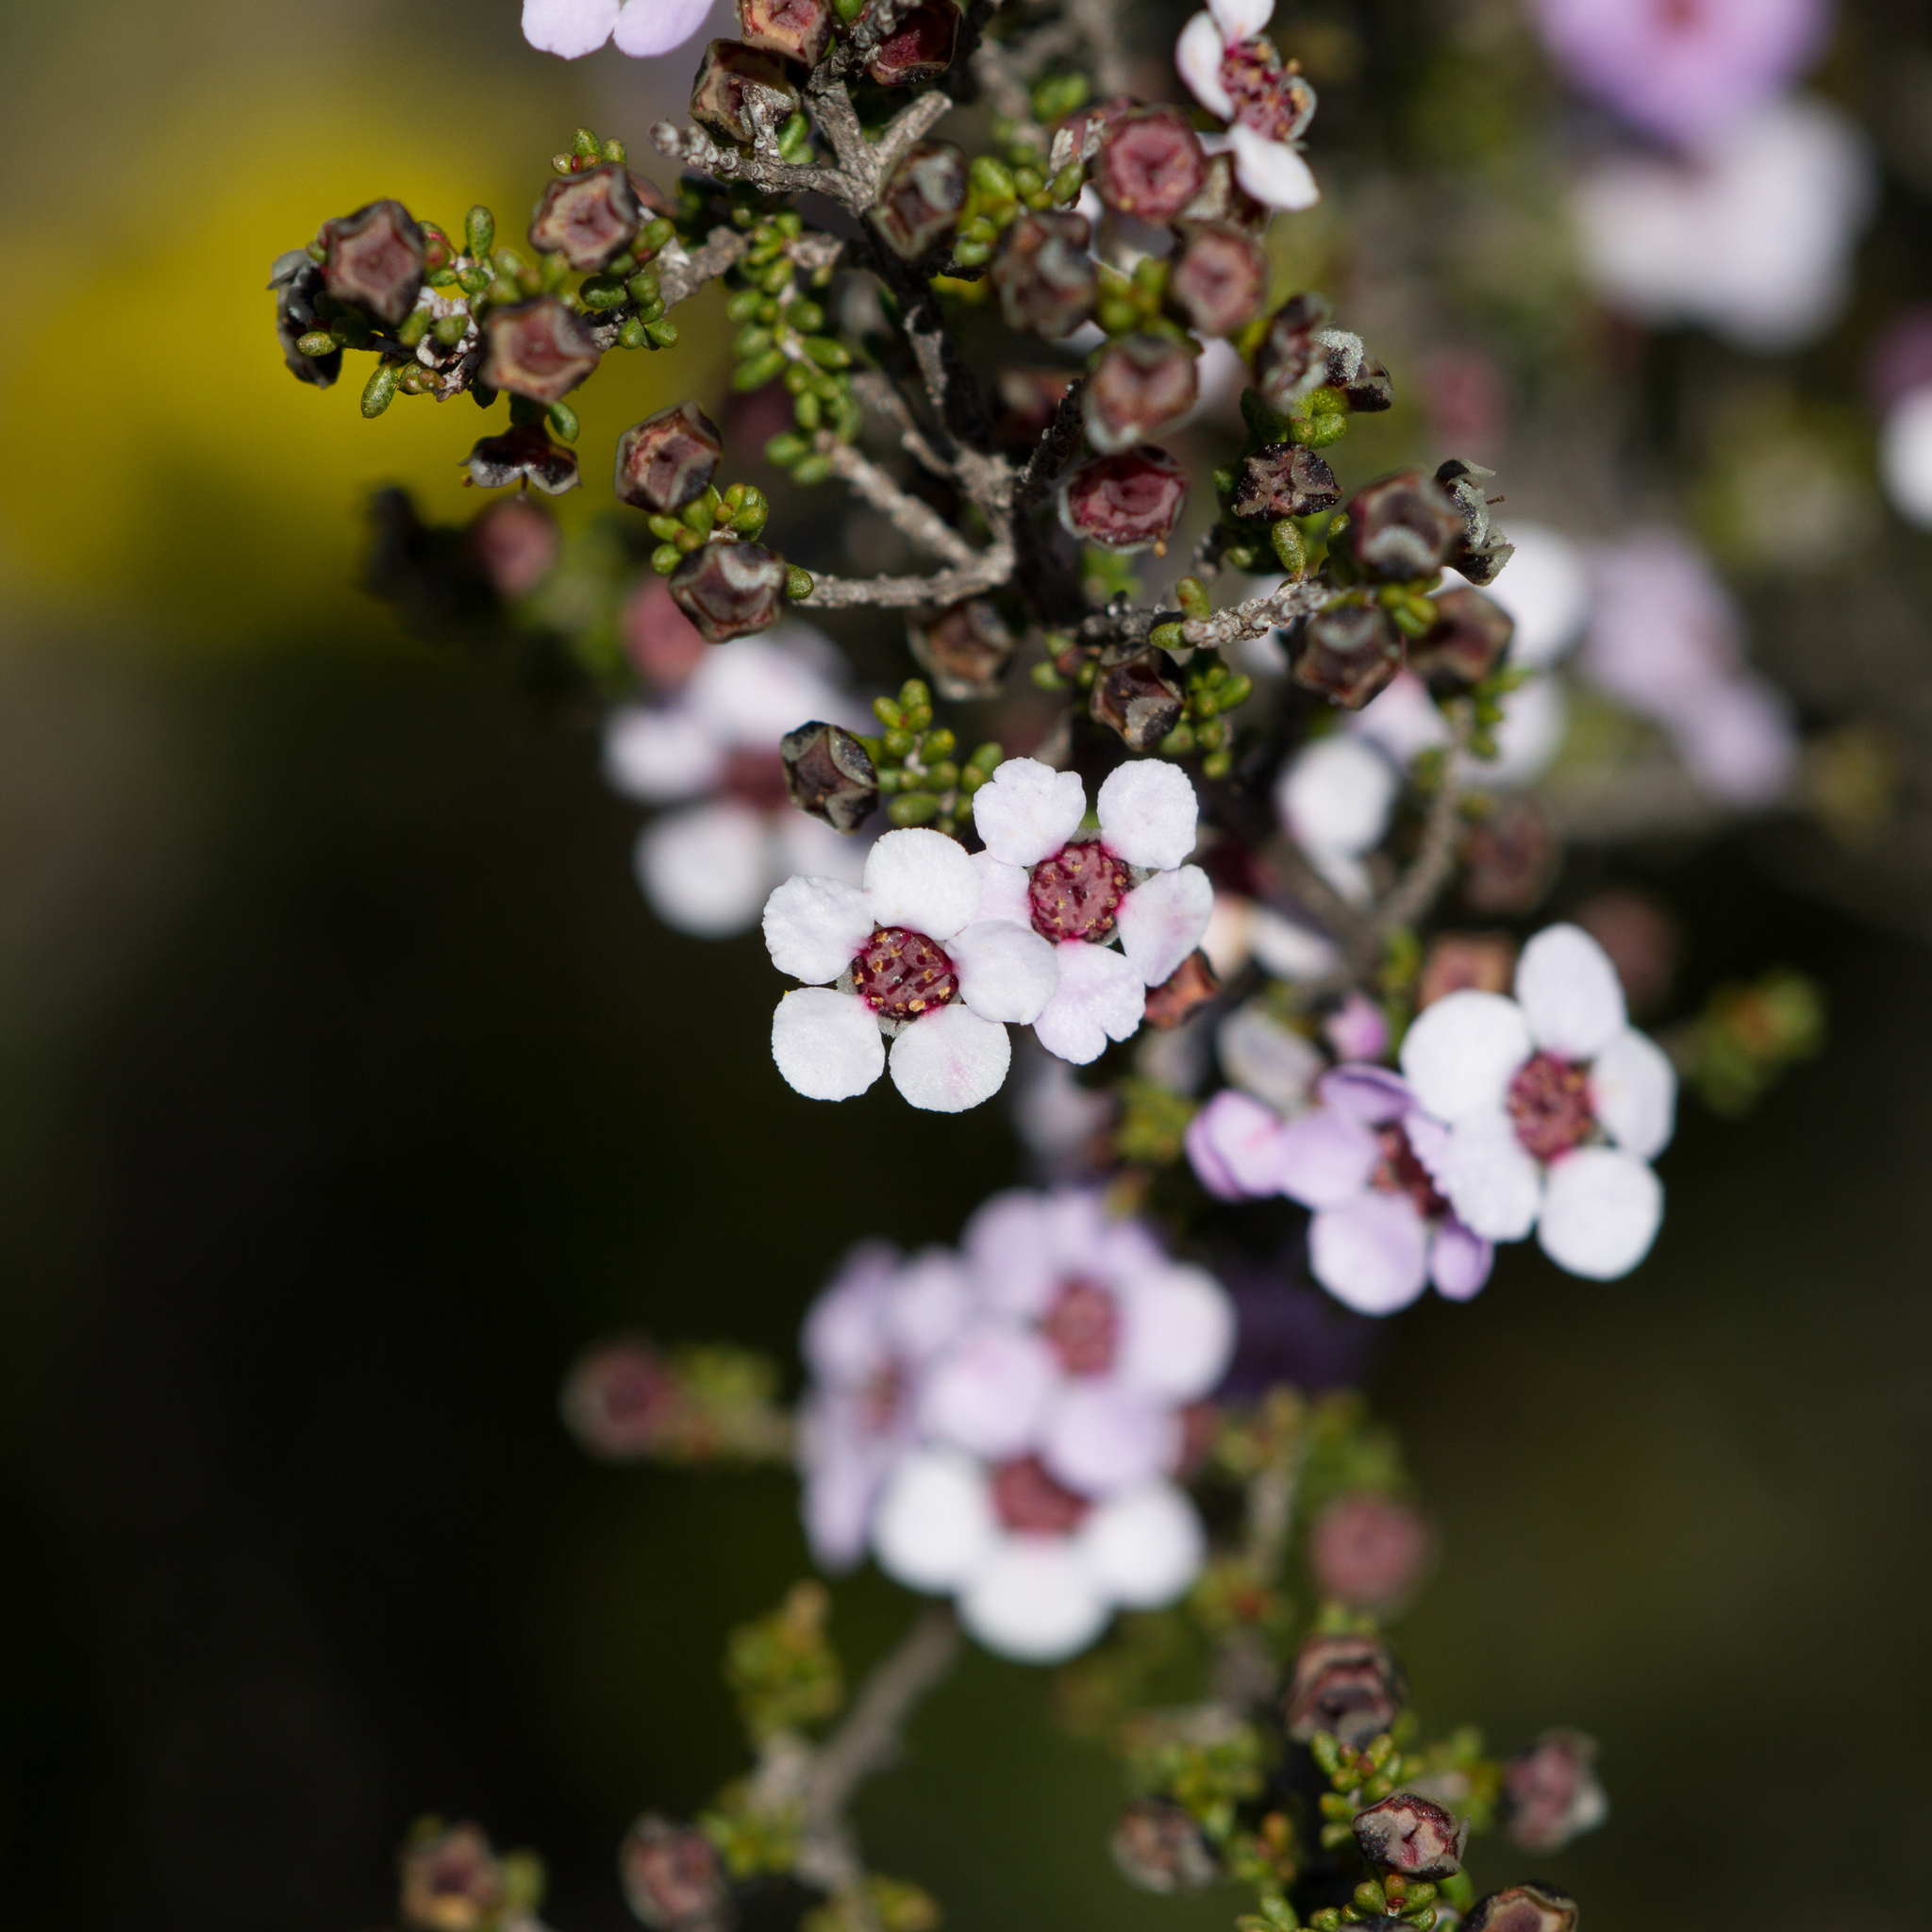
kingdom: Plantae
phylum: Tracheophyta
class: Magnoliopsida
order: Myrtales
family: Myrtaceae
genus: Rinzia
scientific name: Rinzia orientalis
